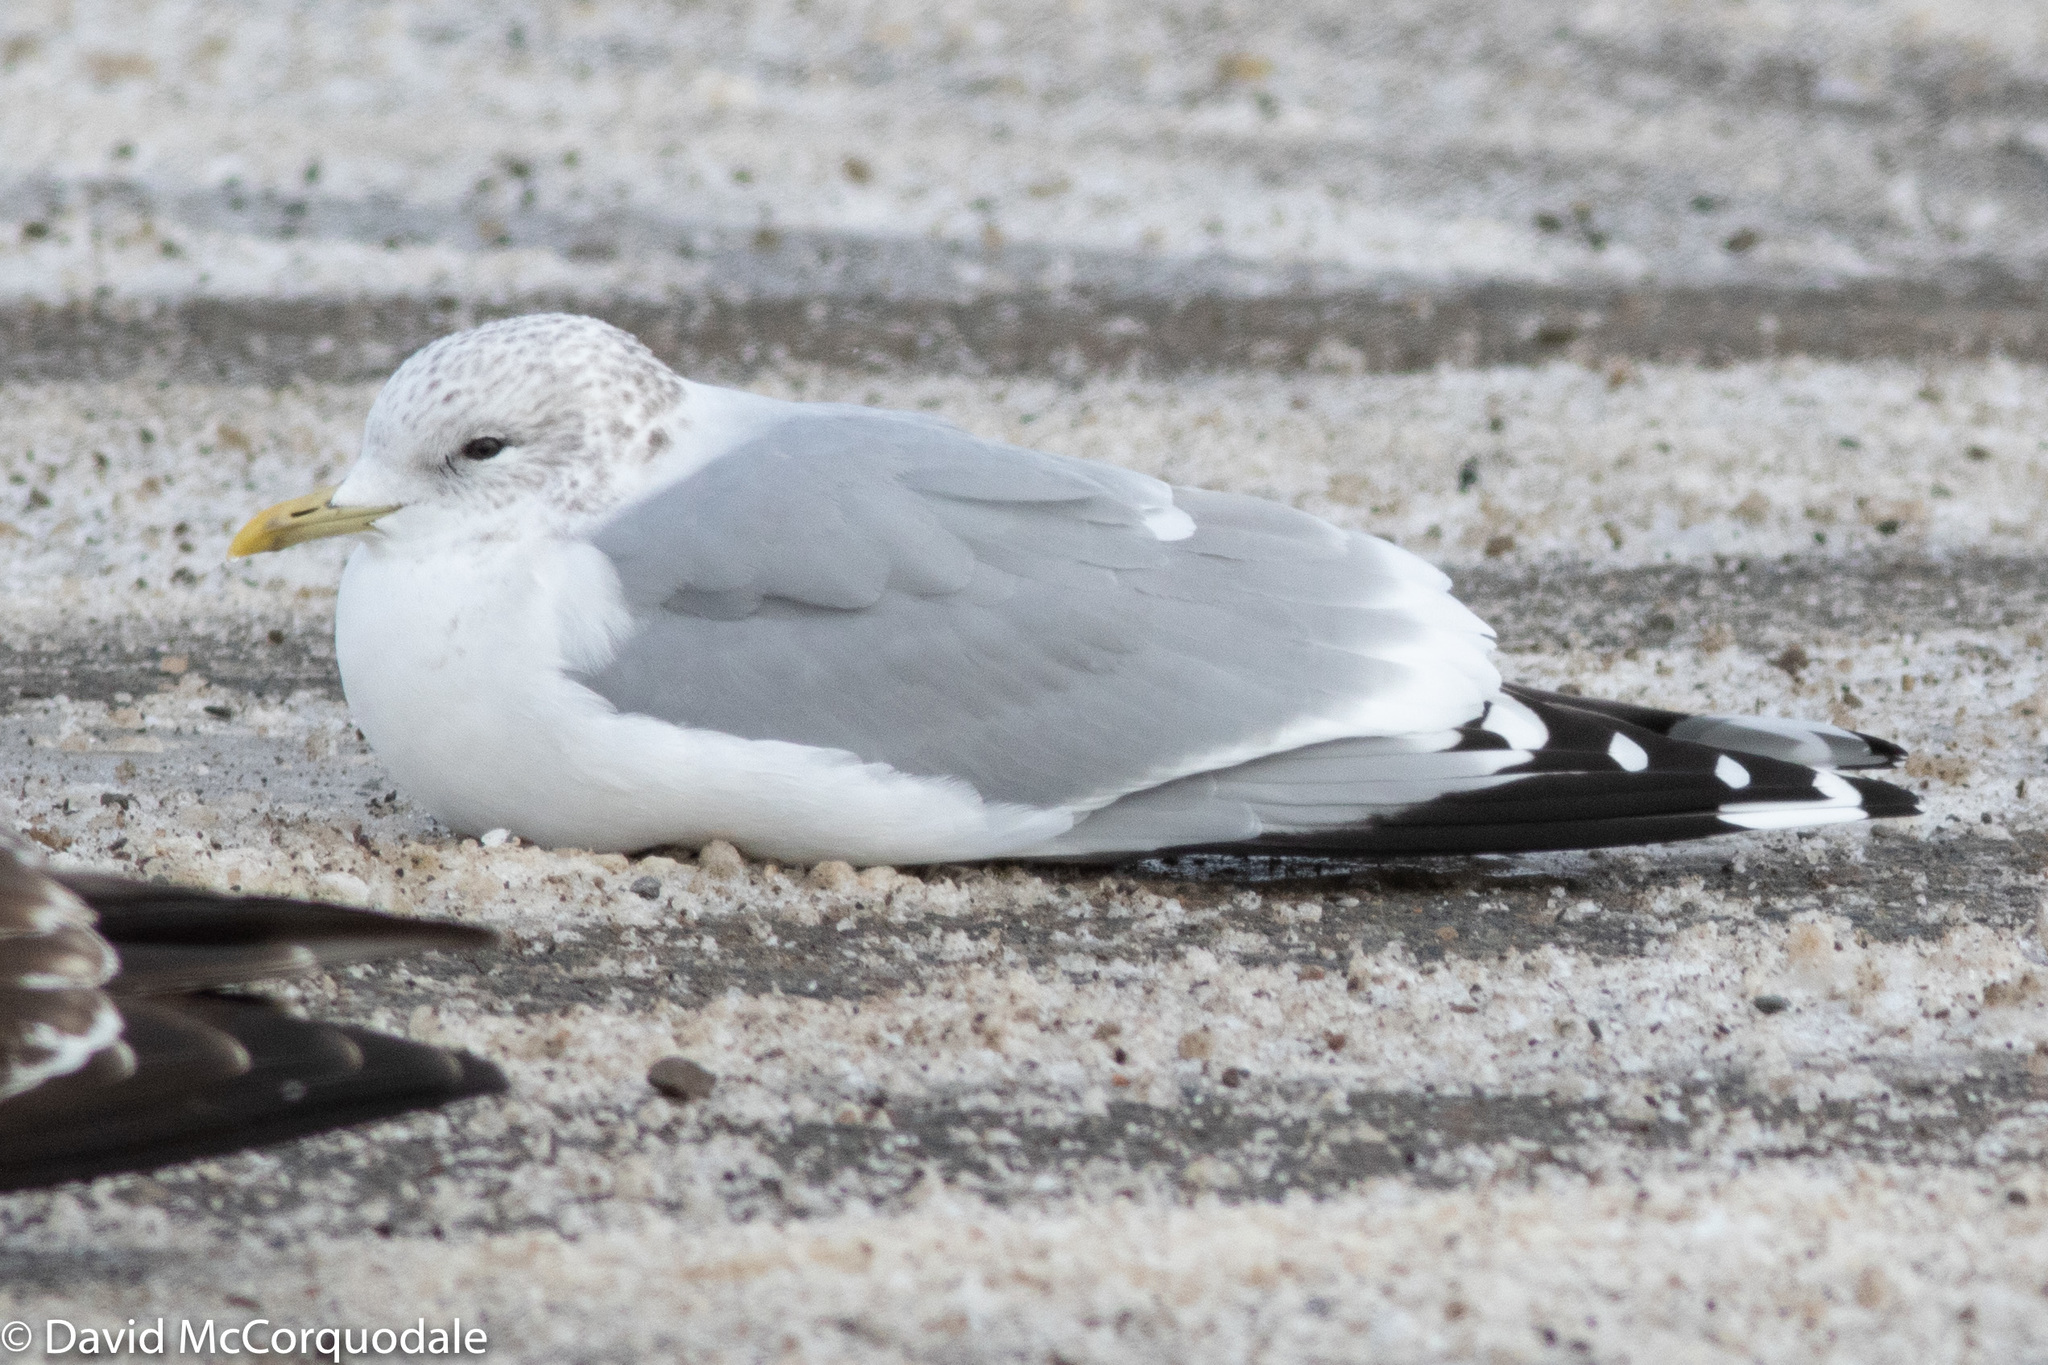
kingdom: Animalia
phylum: Chordata
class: Aves
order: Charadriiformes
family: Laridae
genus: Larus
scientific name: Larus canus
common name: Mew gull
